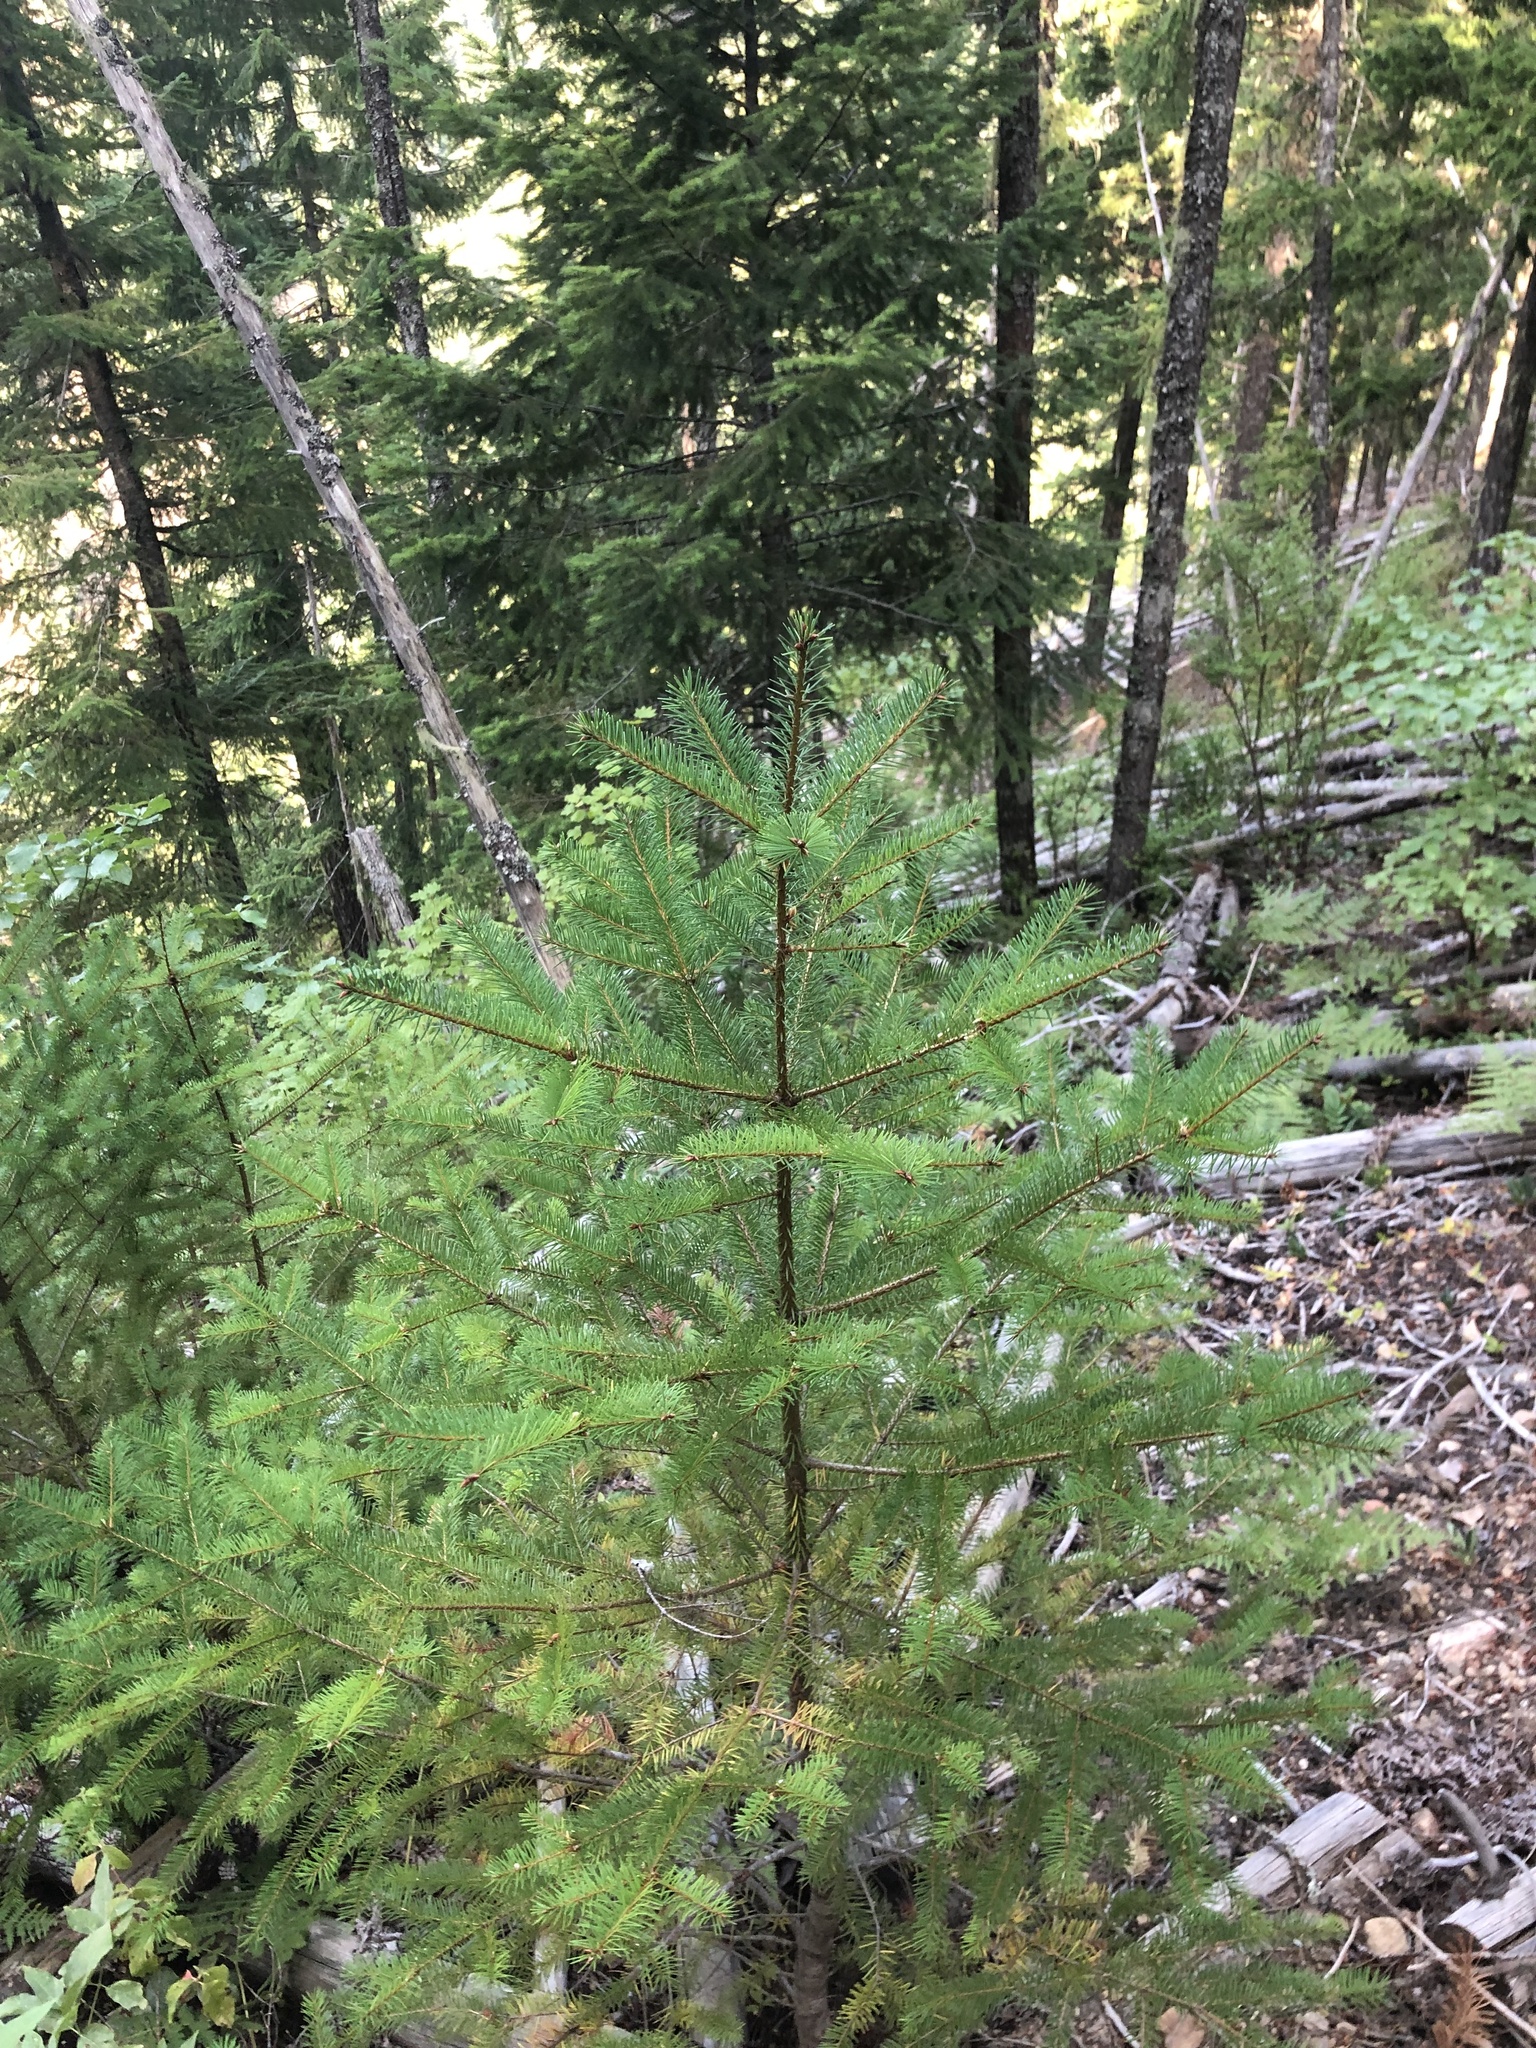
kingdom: Plantae
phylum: Tracheophyta
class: Pinopsida
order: Pinales
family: Pinaceae
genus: Pseudotsuga
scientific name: Pseudotsuga menziesii
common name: Douglas fir
